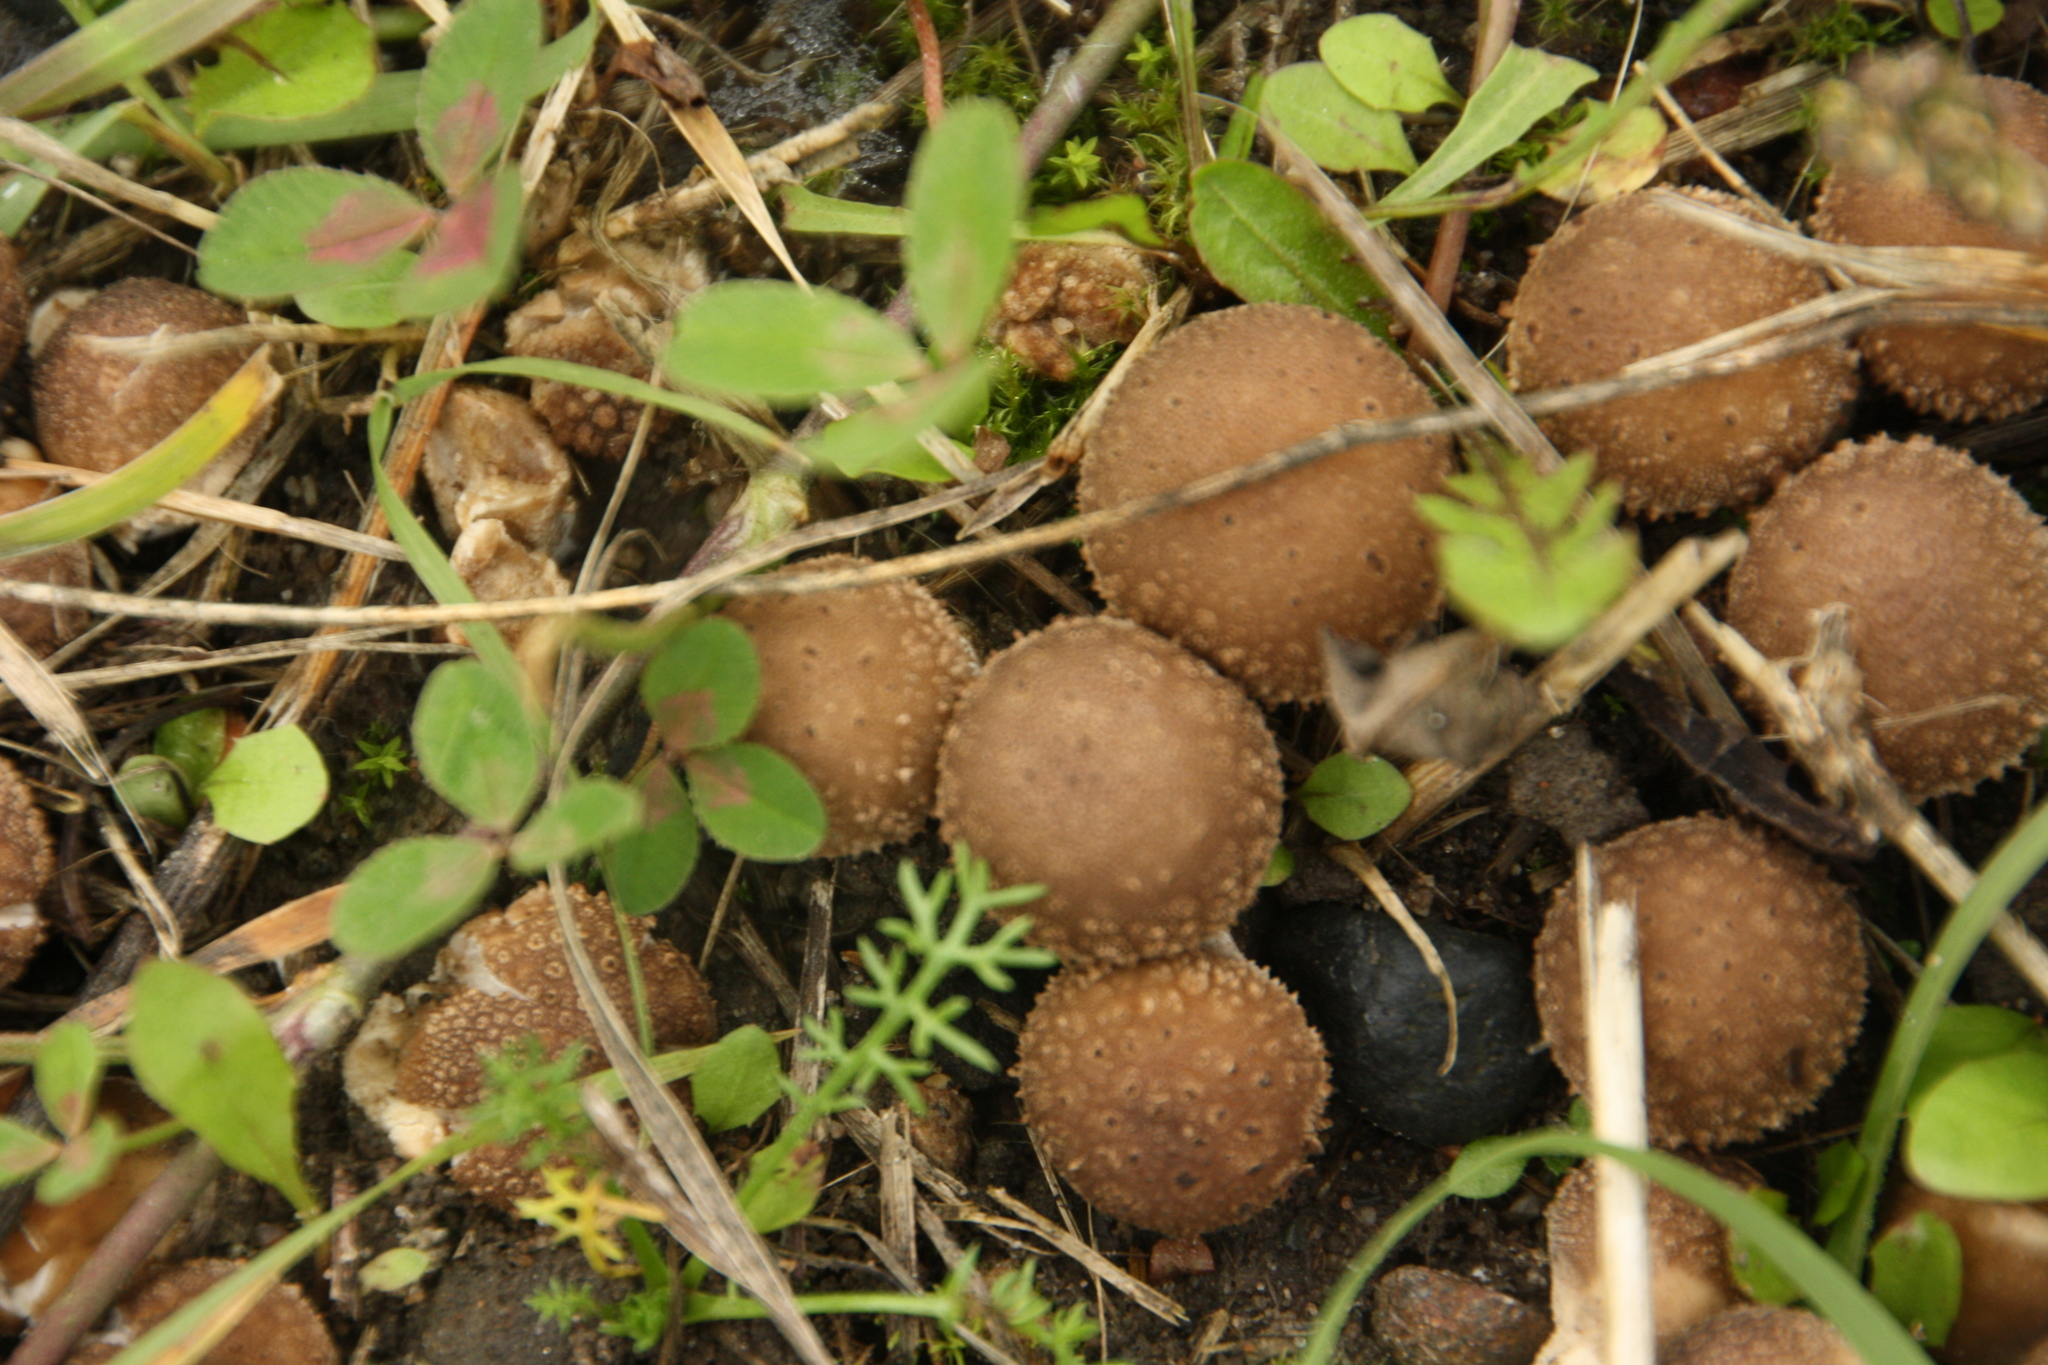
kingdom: Fungi
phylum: Basidiomycota
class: Agaricomycetes
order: Agaricales
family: Lycoperdaceae
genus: Apioperdon
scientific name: Apioperdon pyriforme
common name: Pear-shaped puffball
